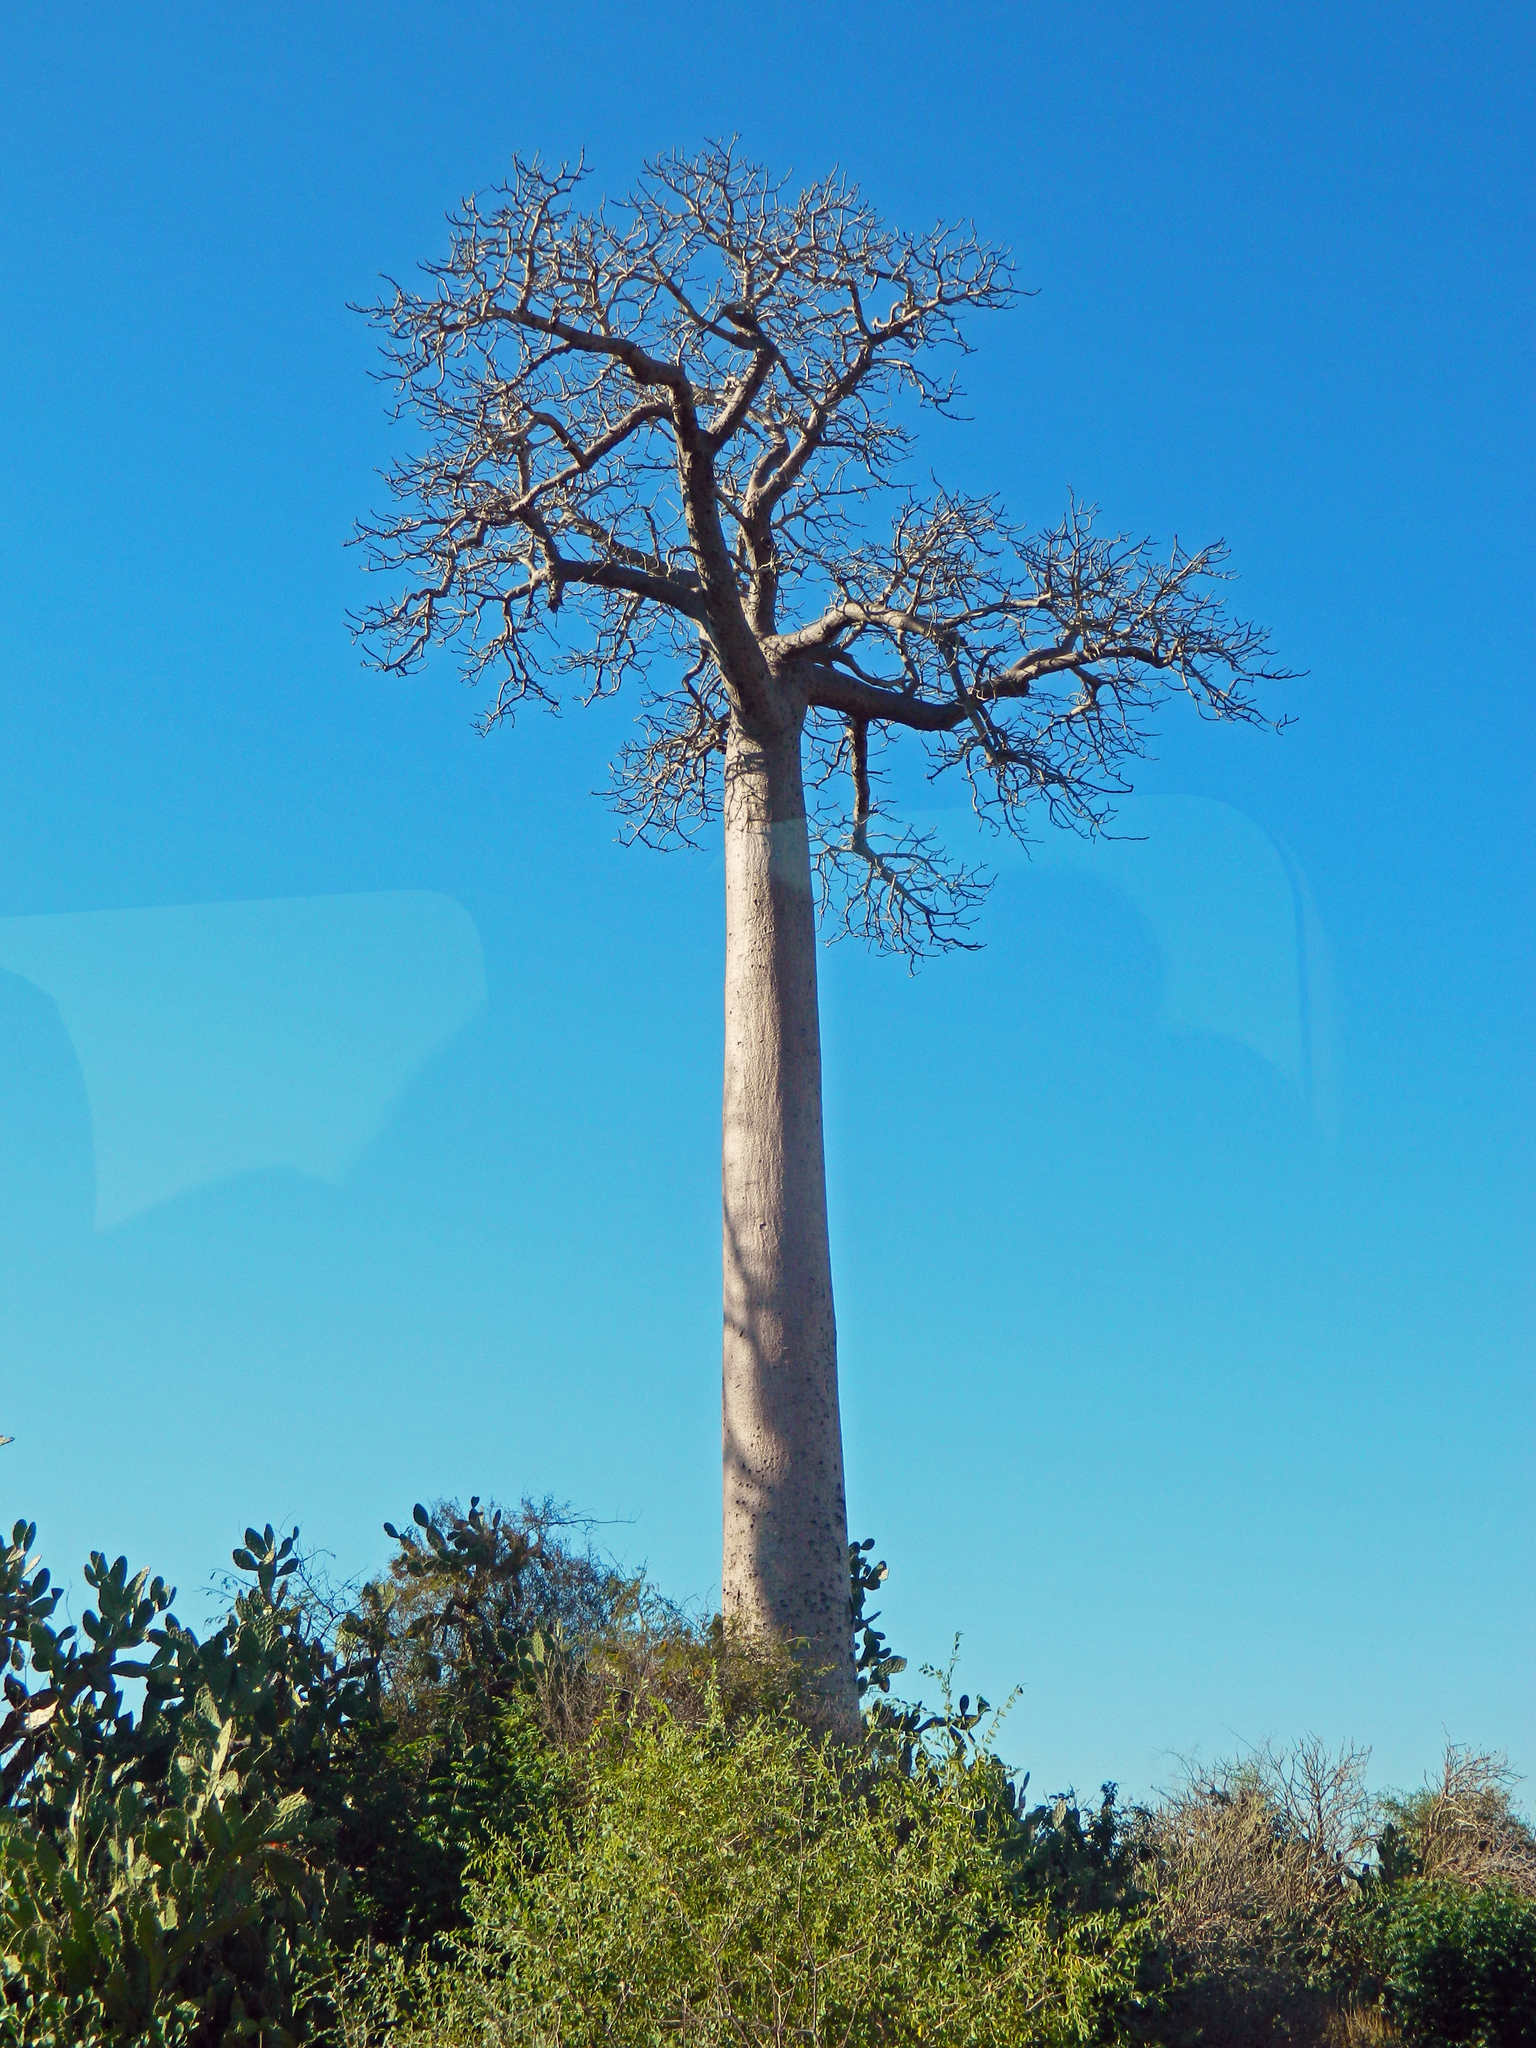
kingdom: Plantae
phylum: Tracheophyta
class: Magnoliopsida
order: Malvales
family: Malvaceae
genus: Adansonia
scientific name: Adansonia za
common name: Za baobab
